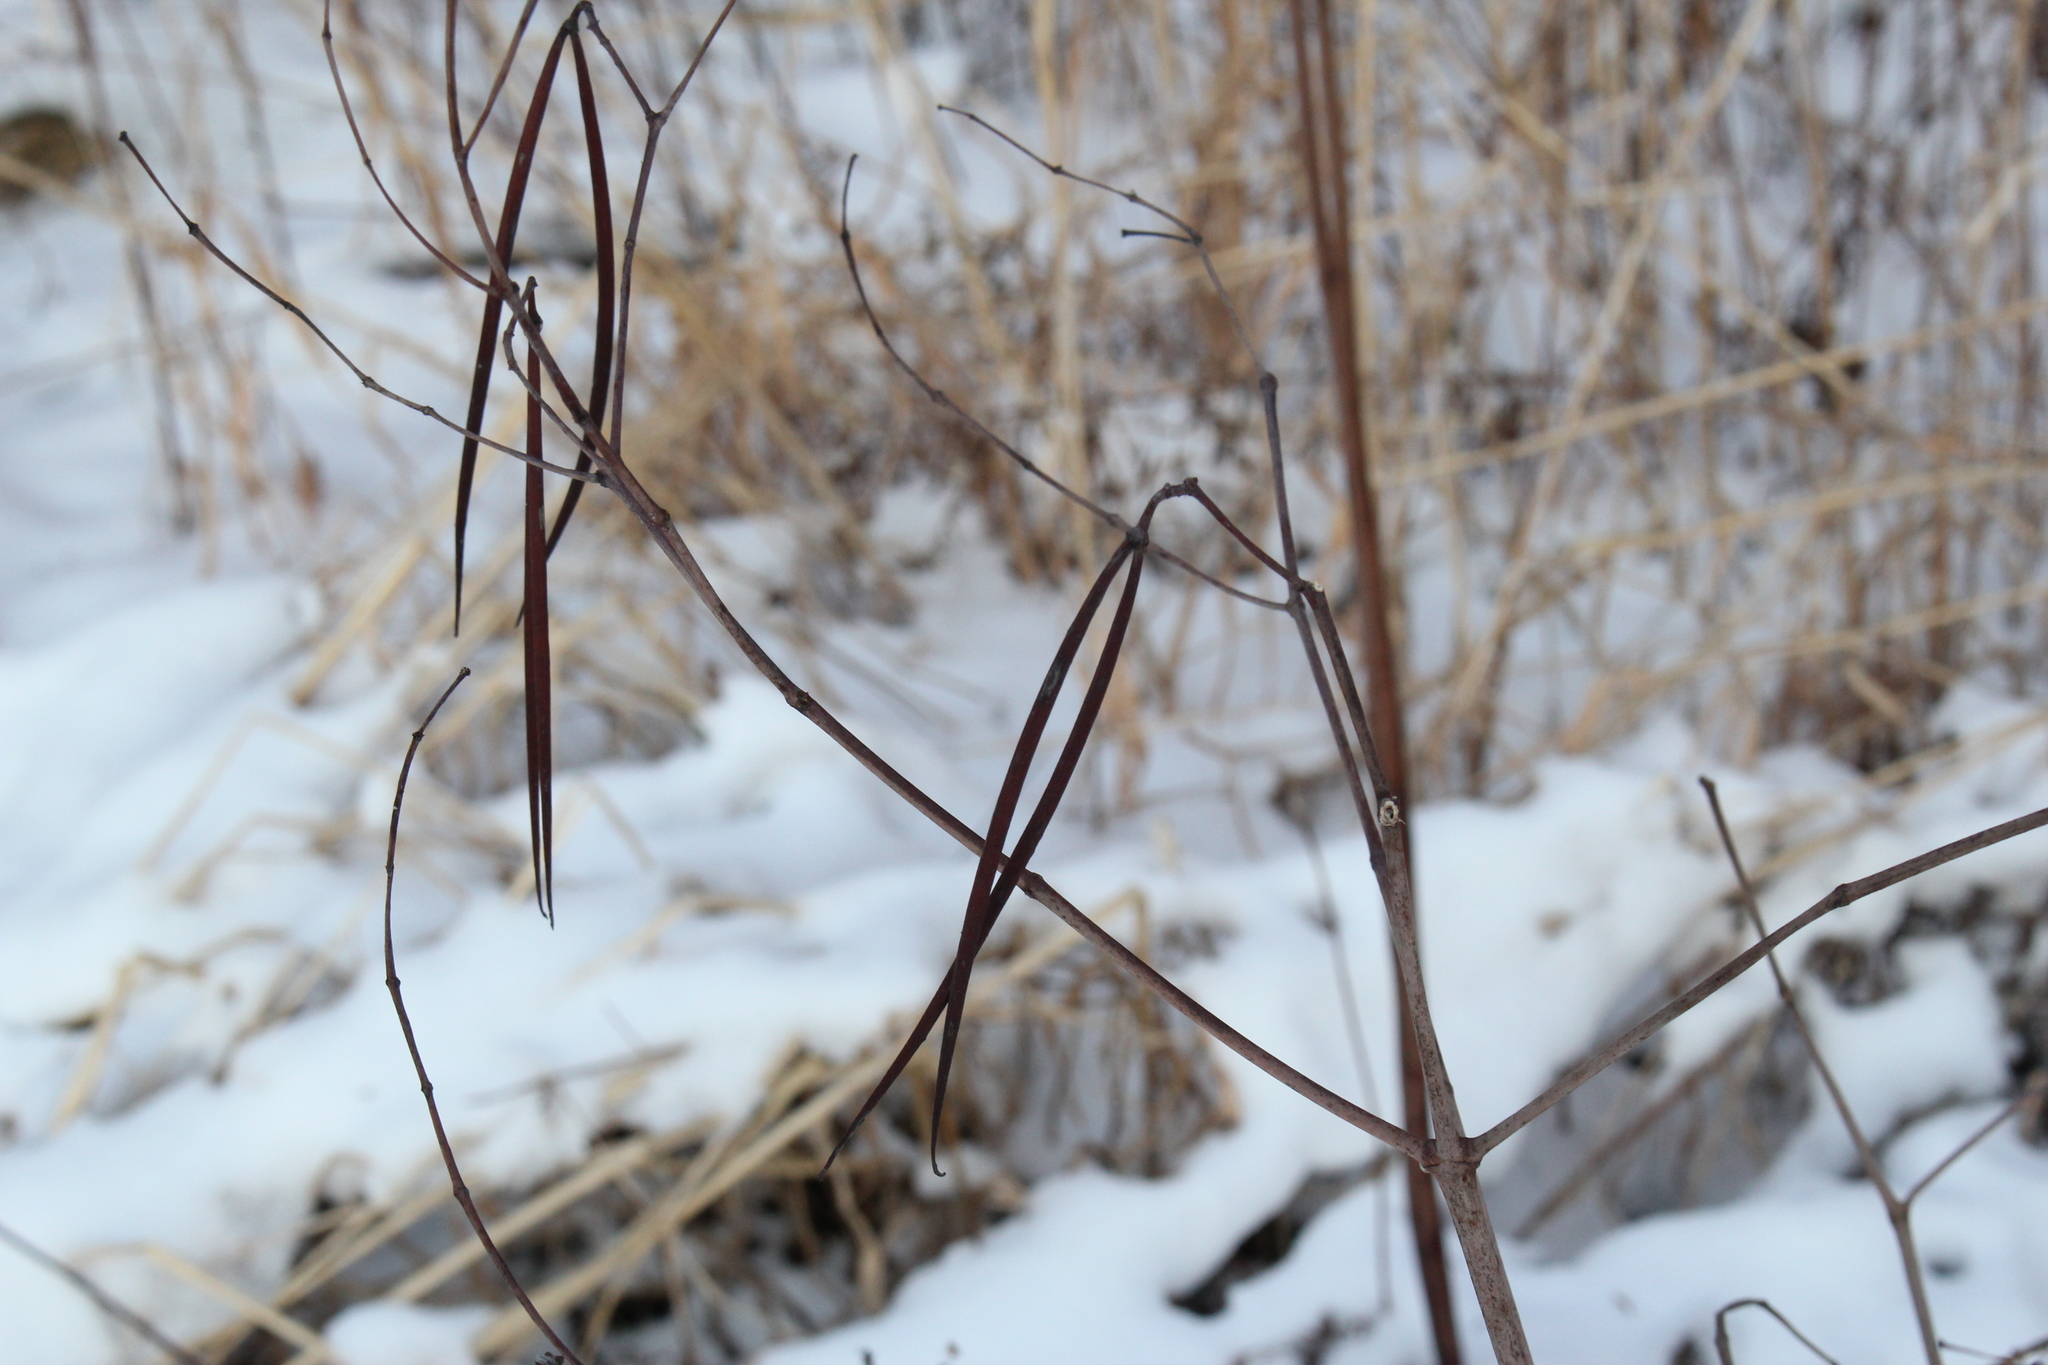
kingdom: Plantae
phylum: Tracheophyta
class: Magnoliopsida
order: Gentianales
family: Apocynaceae
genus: Apocynum
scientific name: Apocynum cannabinum
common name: Hemp dogbane
